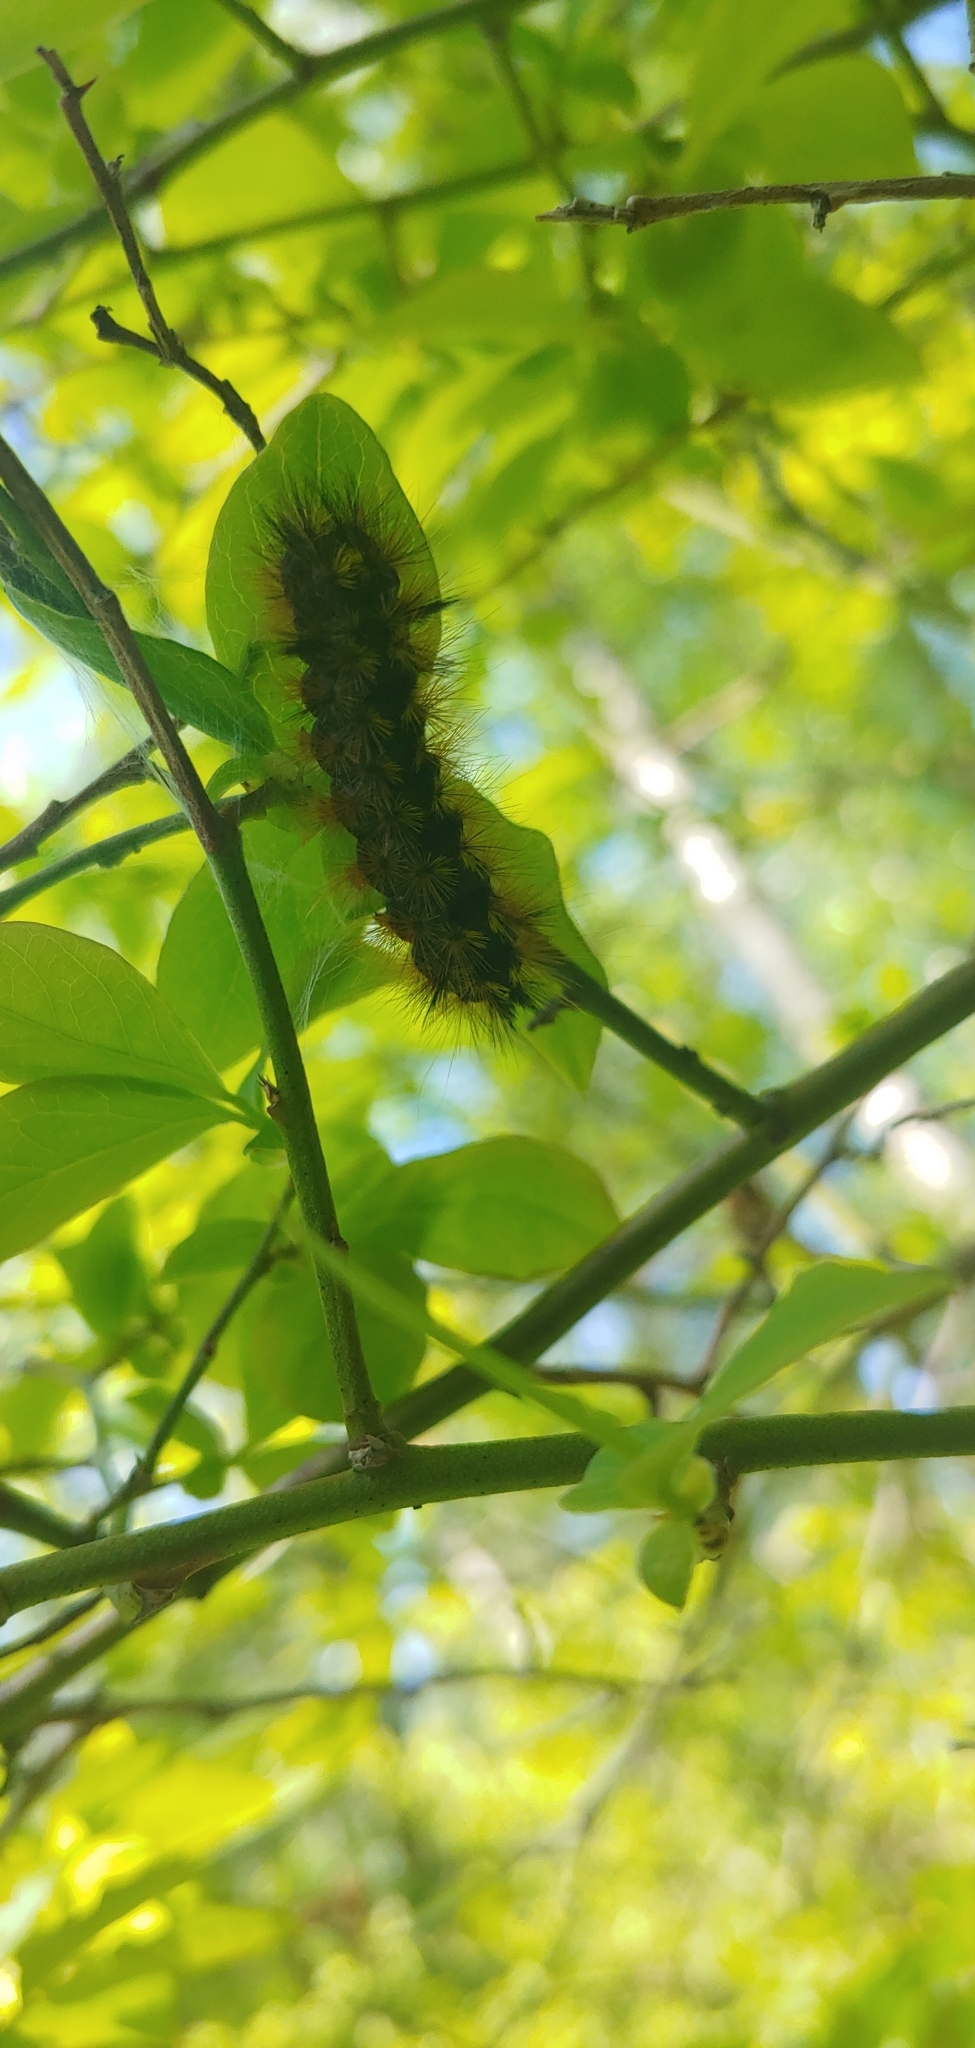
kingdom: Animalia
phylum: Arthropoda
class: Insecta
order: Lepidoptera
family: Erebidae
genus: Lophocampa
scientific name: Lophocampa argentata
